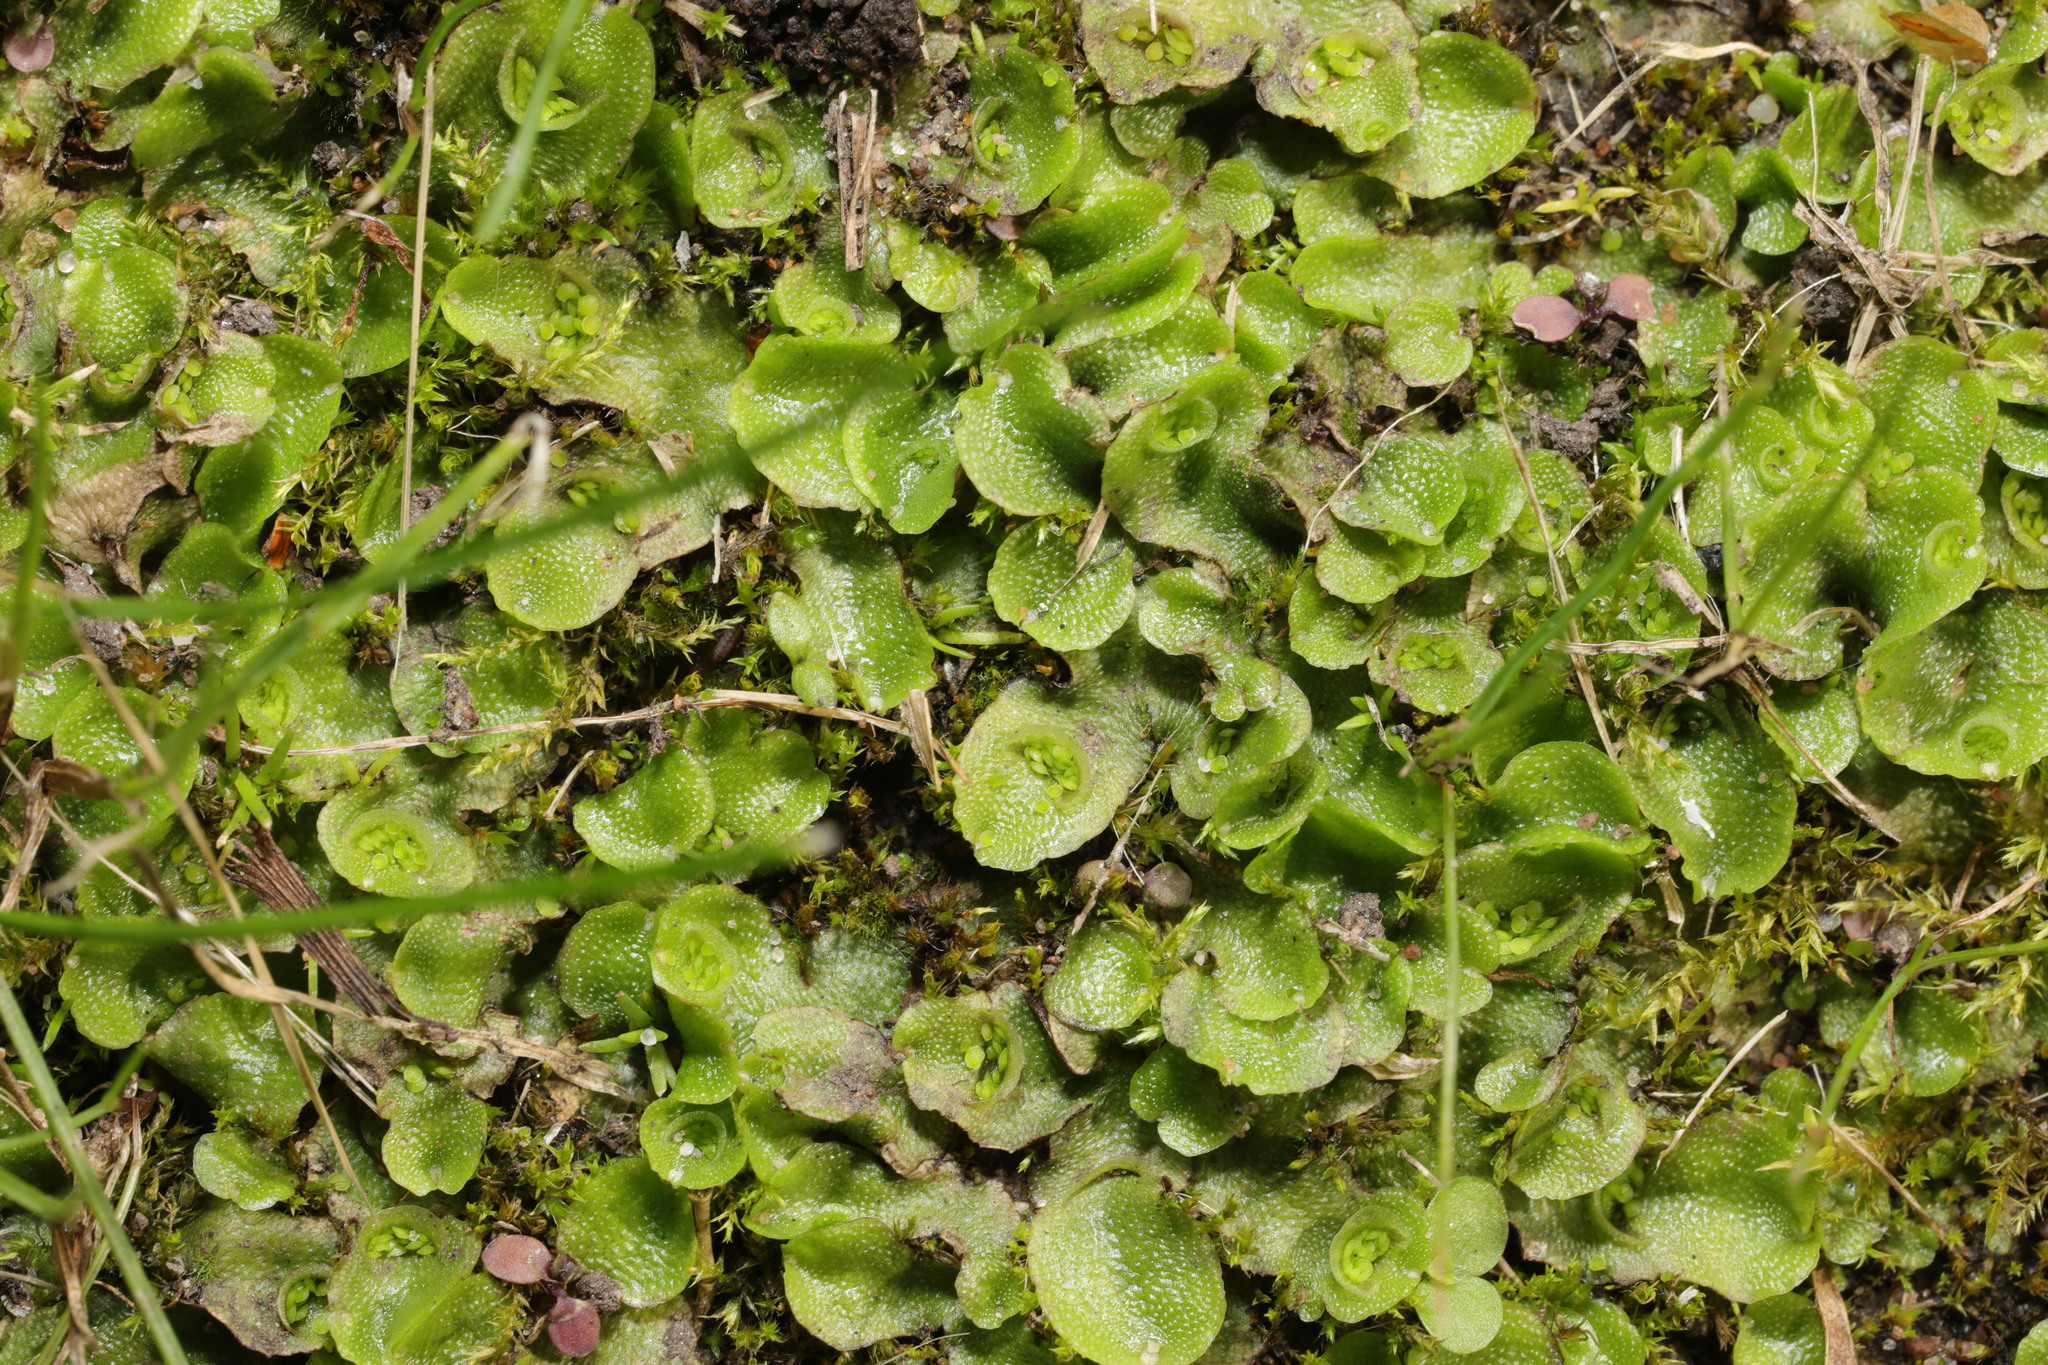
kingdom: Plantae
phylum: Marchantiophyta
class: Marchantiopsida
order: Lunulariales
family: Lunulariaceae
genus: Lunularia
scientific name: Lunularia cruciata
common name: Crescent-cup liverwort
